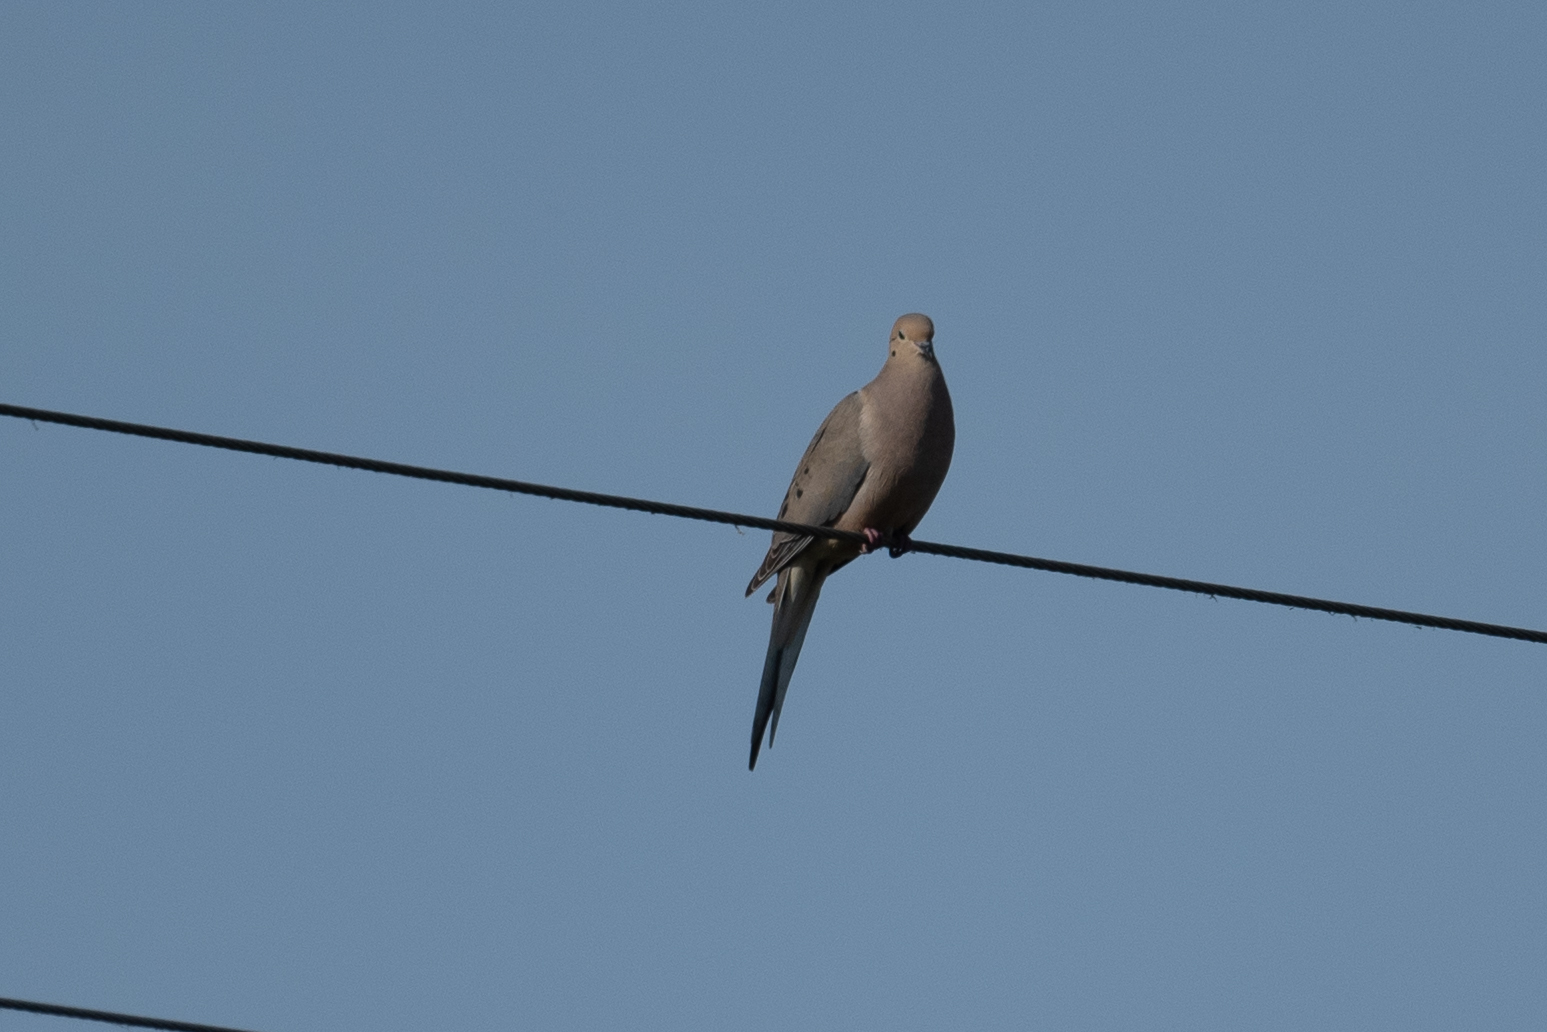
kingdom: Animalia
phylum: Chordata
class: Aves
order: Columbiformes
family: Columbidae
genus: Zenaida
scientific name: Zenaida macroura
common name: Mourning dove
